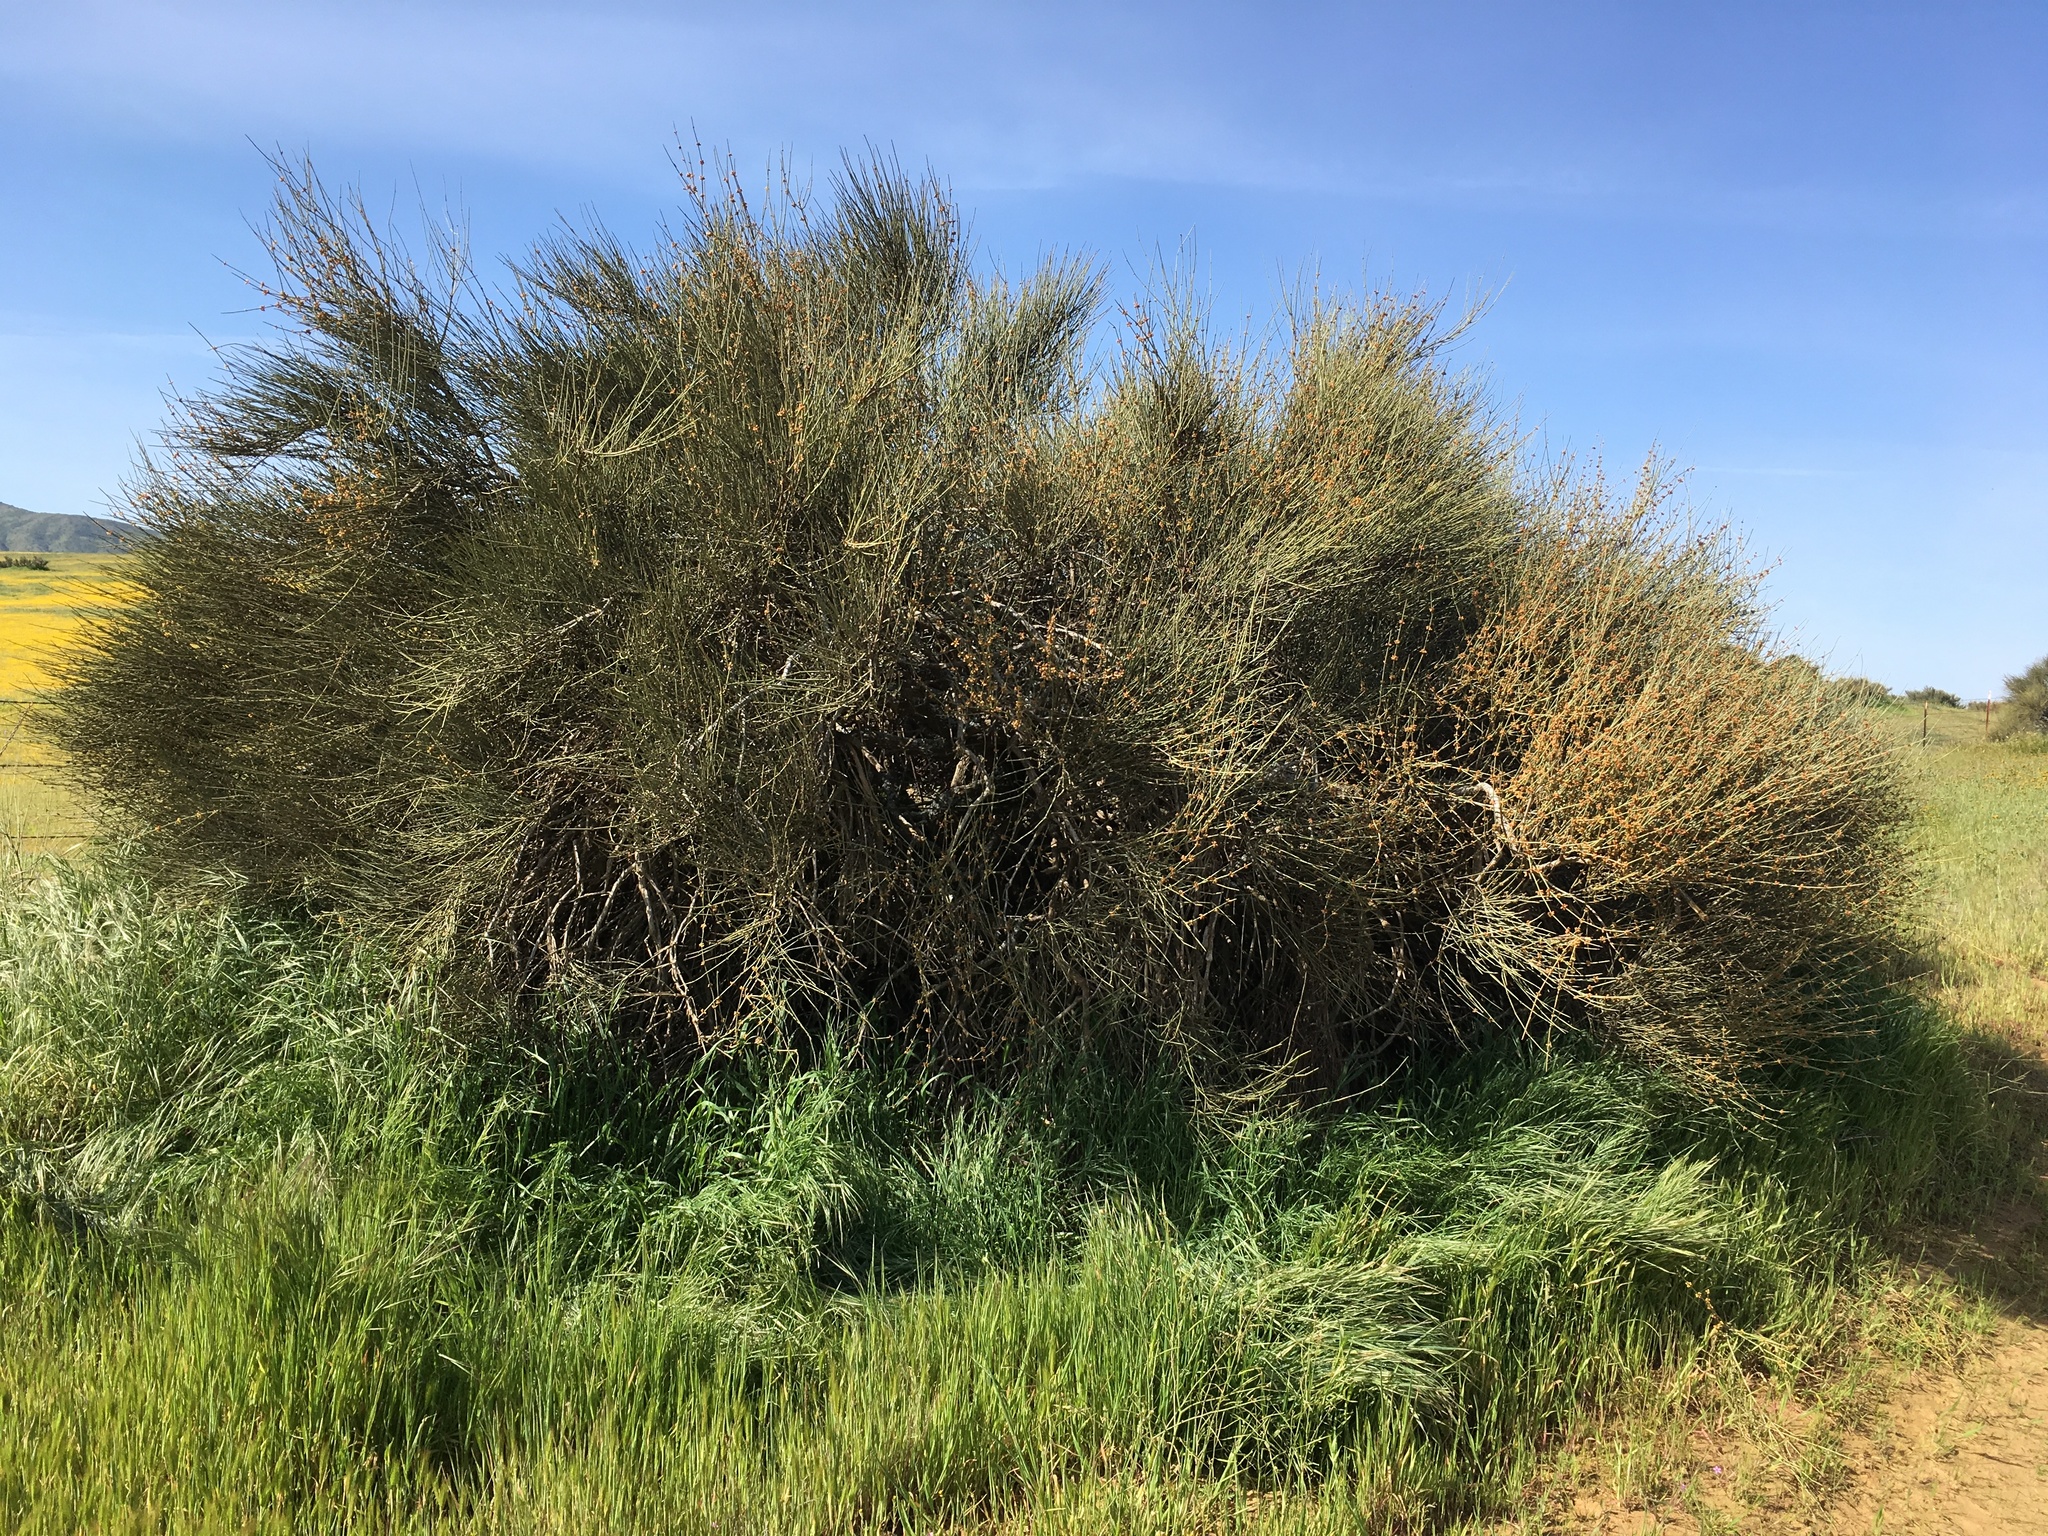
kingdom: Plantae
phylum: Tracheophyta
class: Gnetopsida
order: Ephedrales
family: Ephedraceae
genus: Ephedra
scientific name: Ephedra californica
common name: California ephedra
